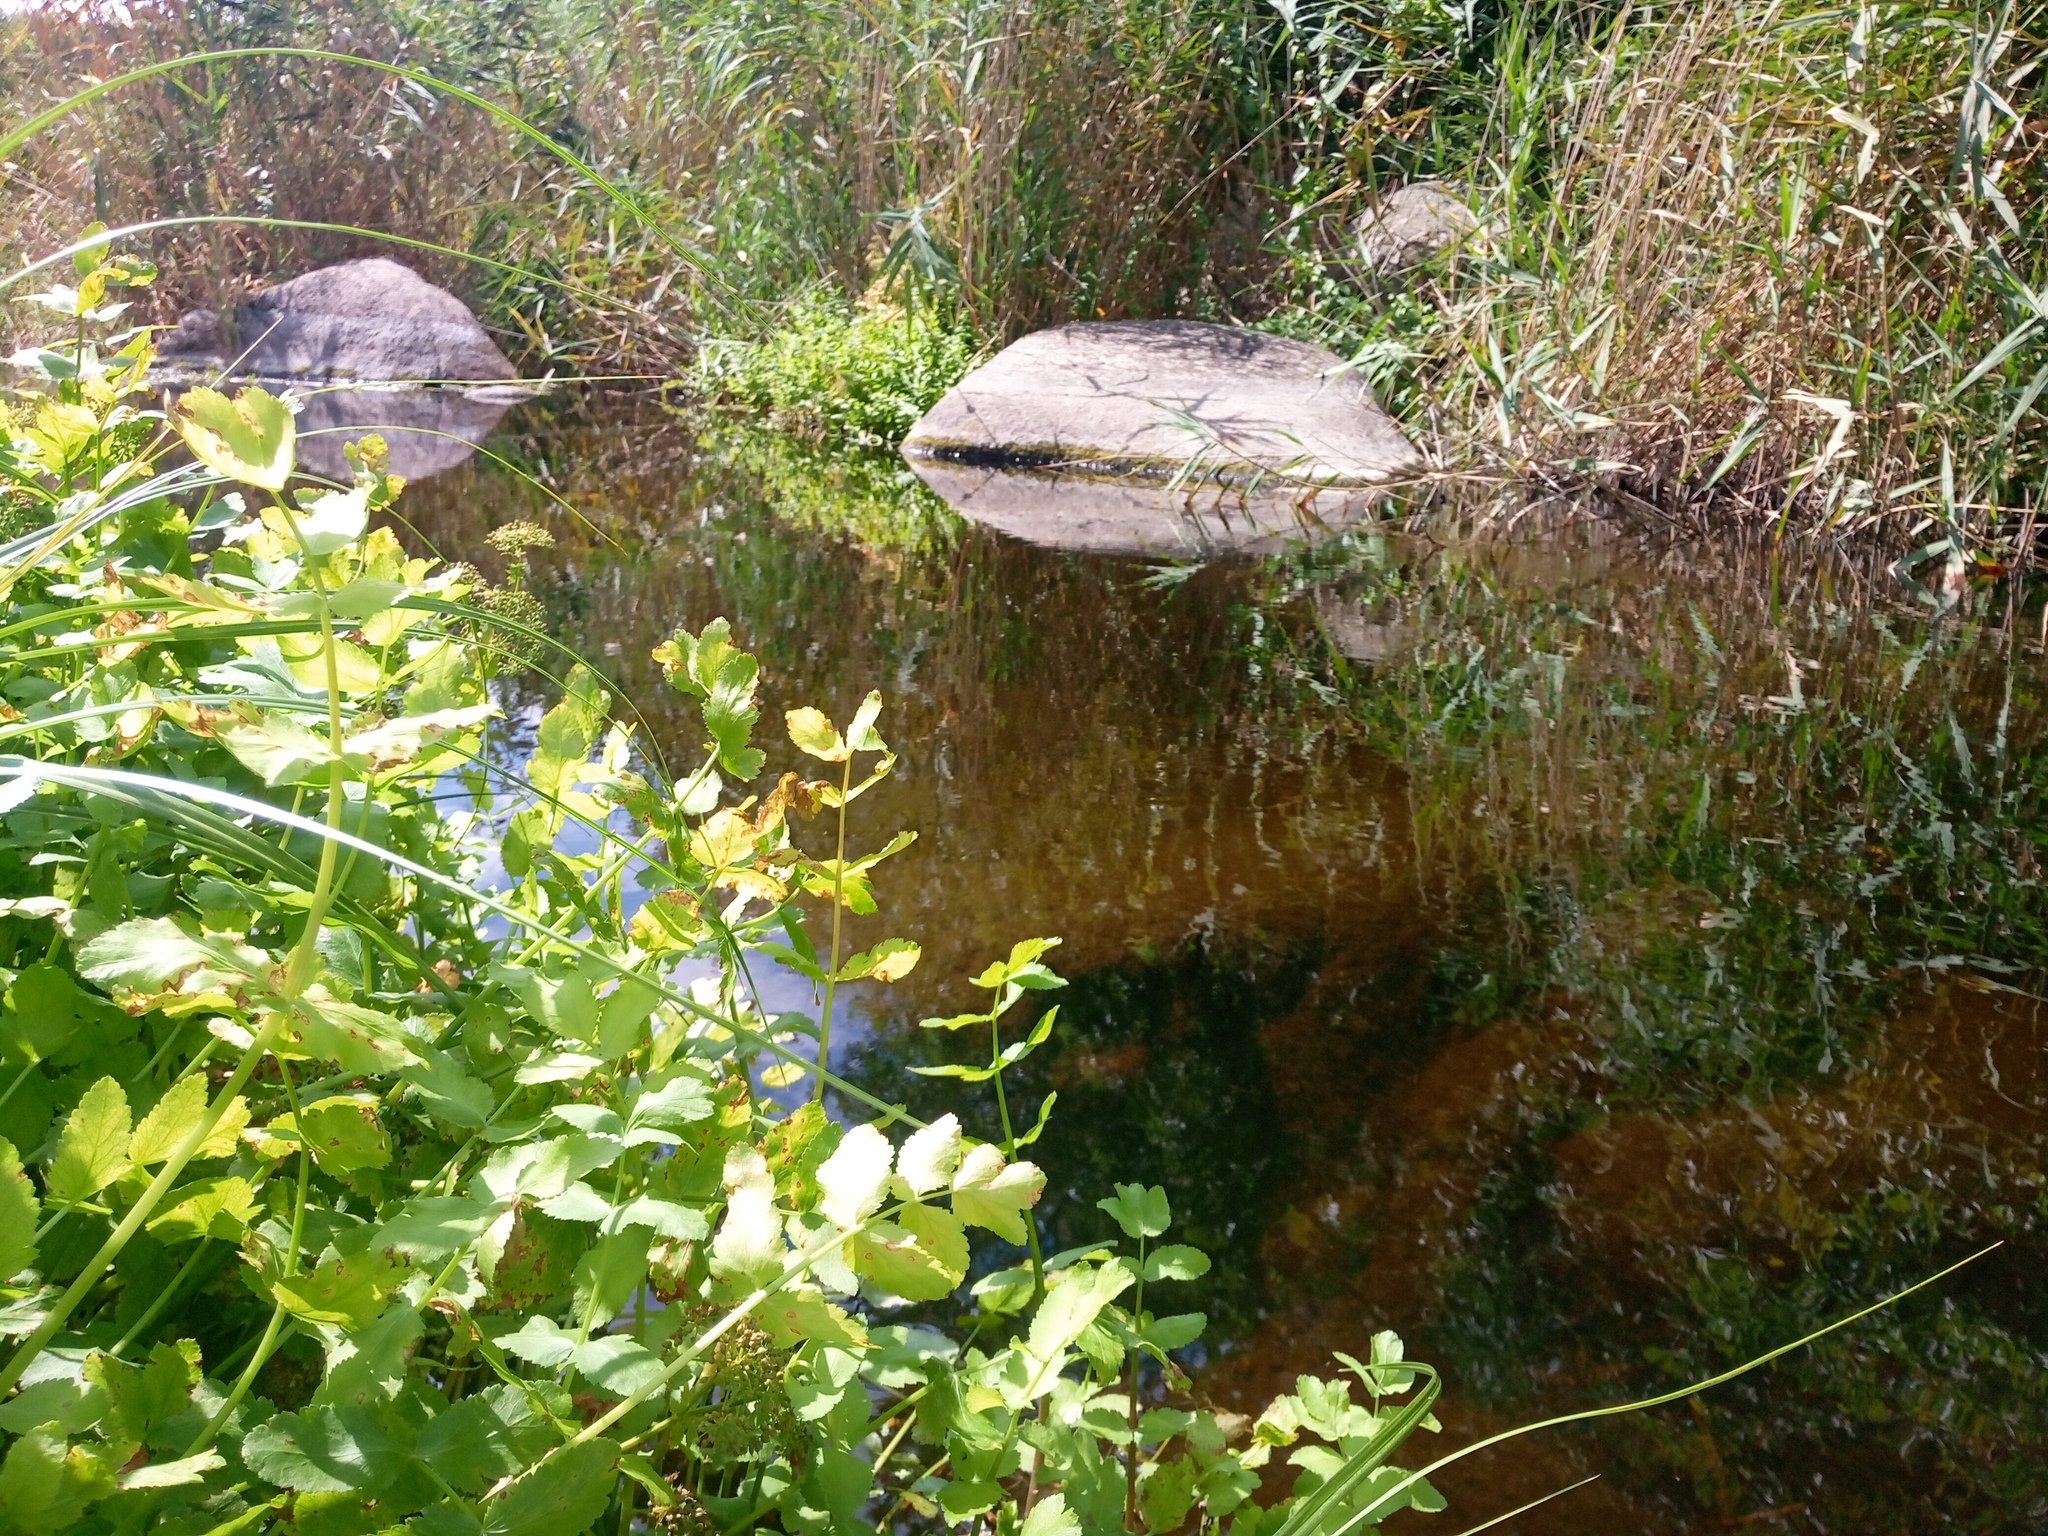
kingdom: Plantae
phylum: Tracheophyta
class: Magnoliopsida
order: Apiales
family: Apiaceae
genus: Berula
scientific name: Berula erecta
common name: Lesser water-parsnip
